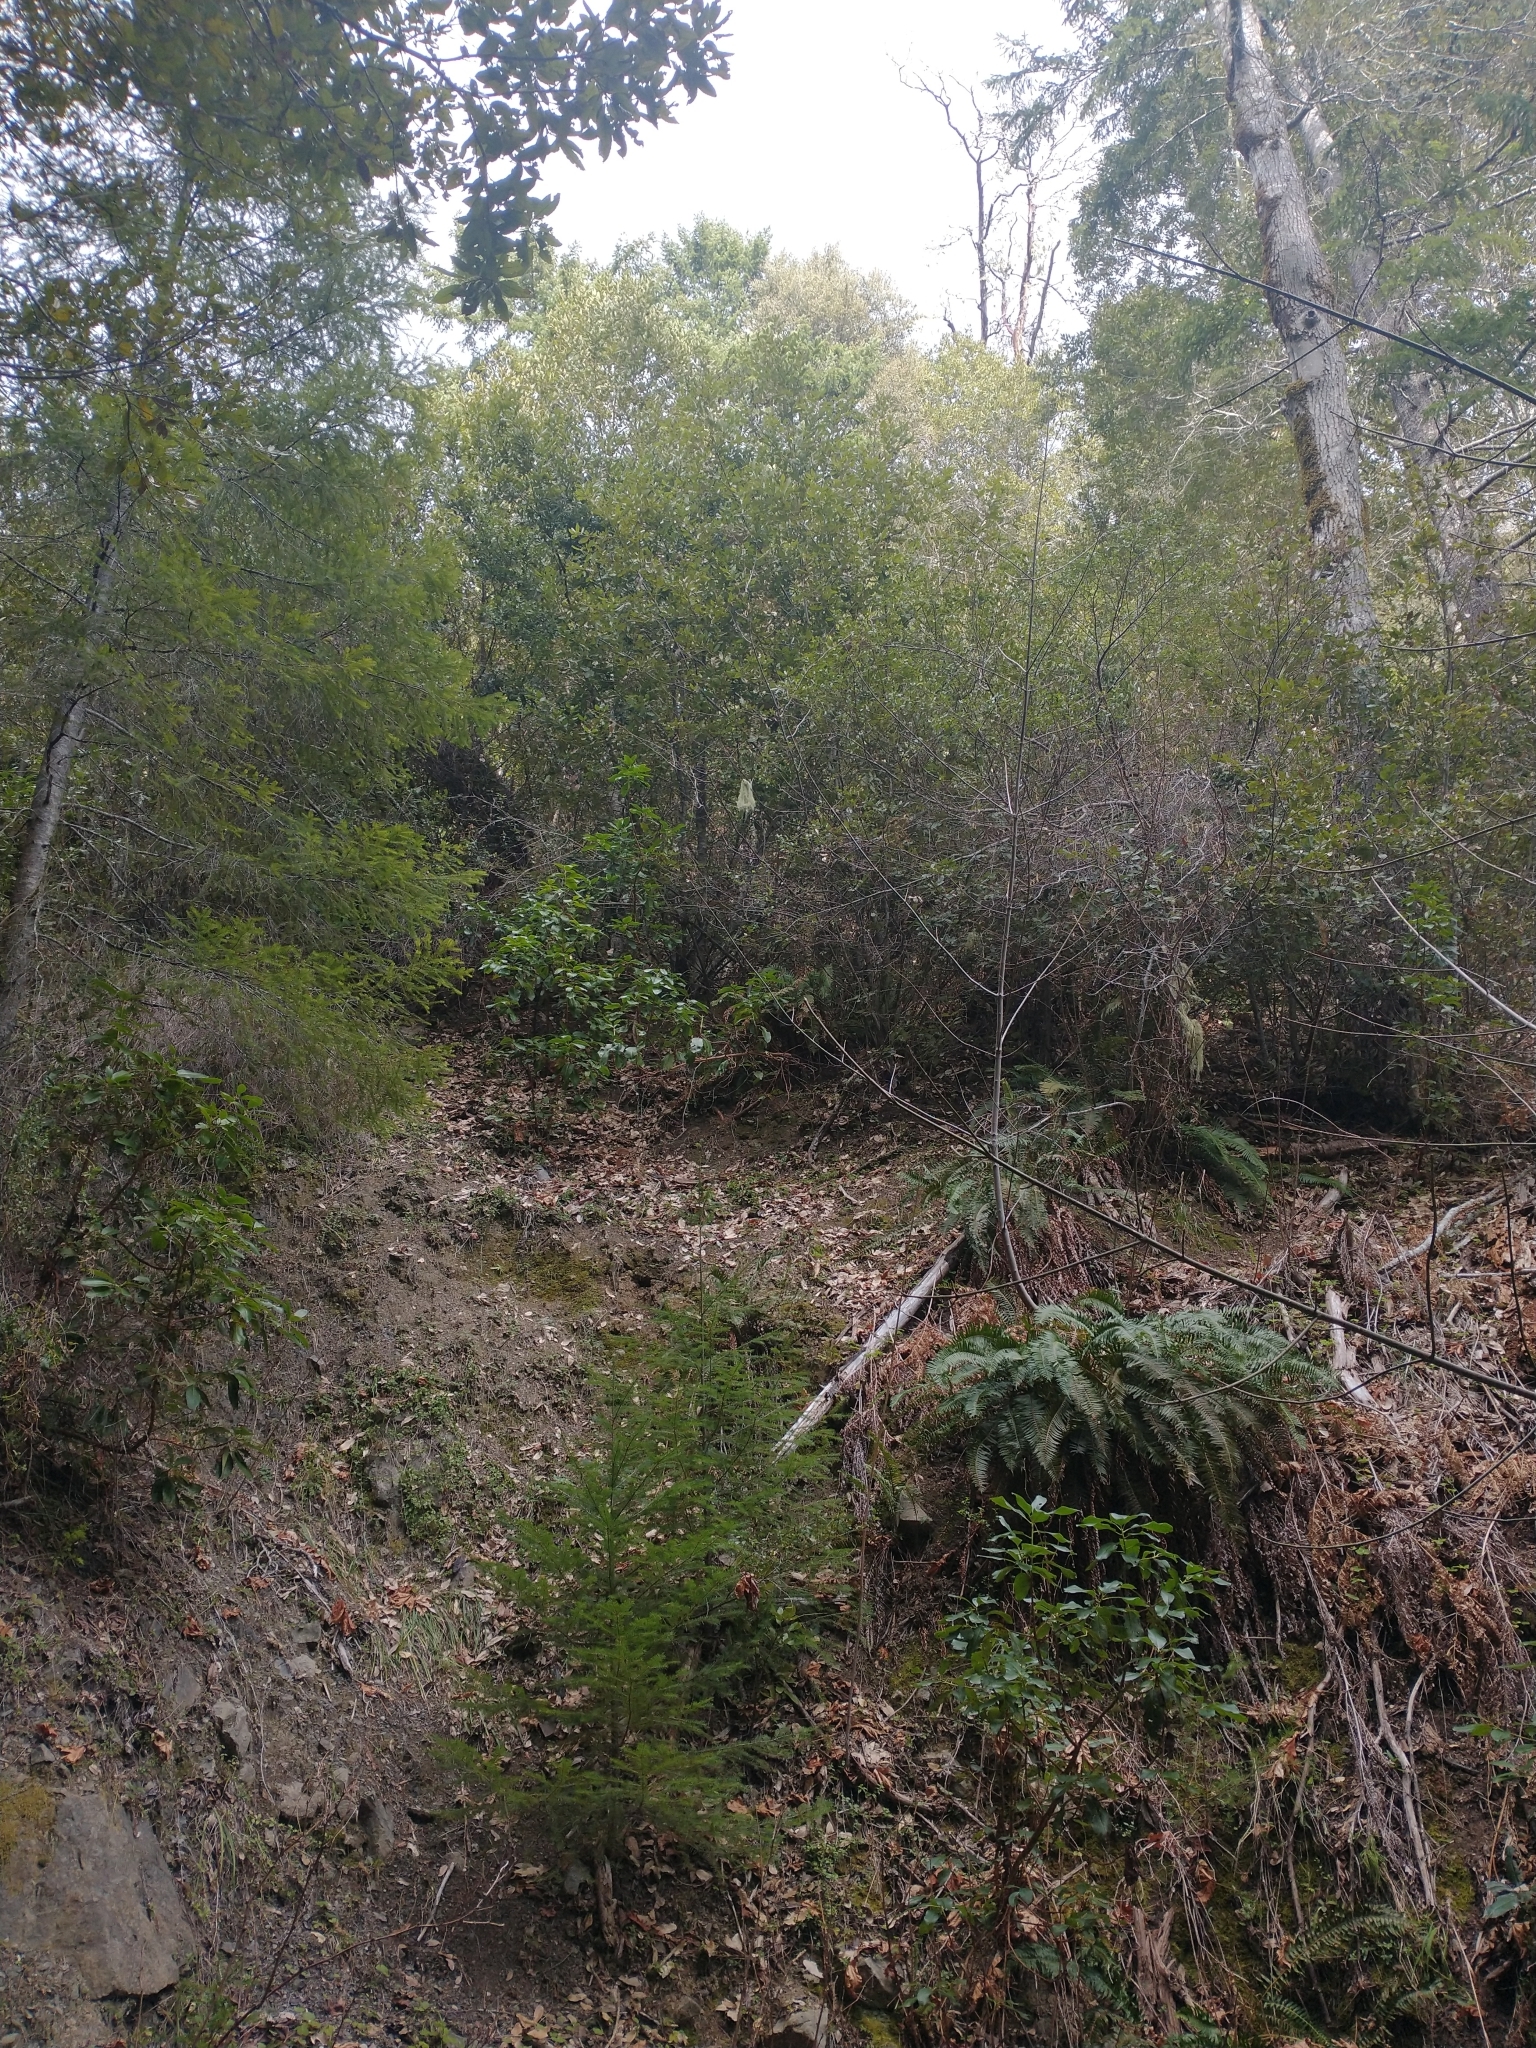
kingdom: Plantae
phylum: Tracheophyta
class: Magnoliopsida
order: Fagales
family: Fagaceae
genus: Notholithocarpus
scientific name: Notholithocarpus densiflorus
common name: Tan bark oak
